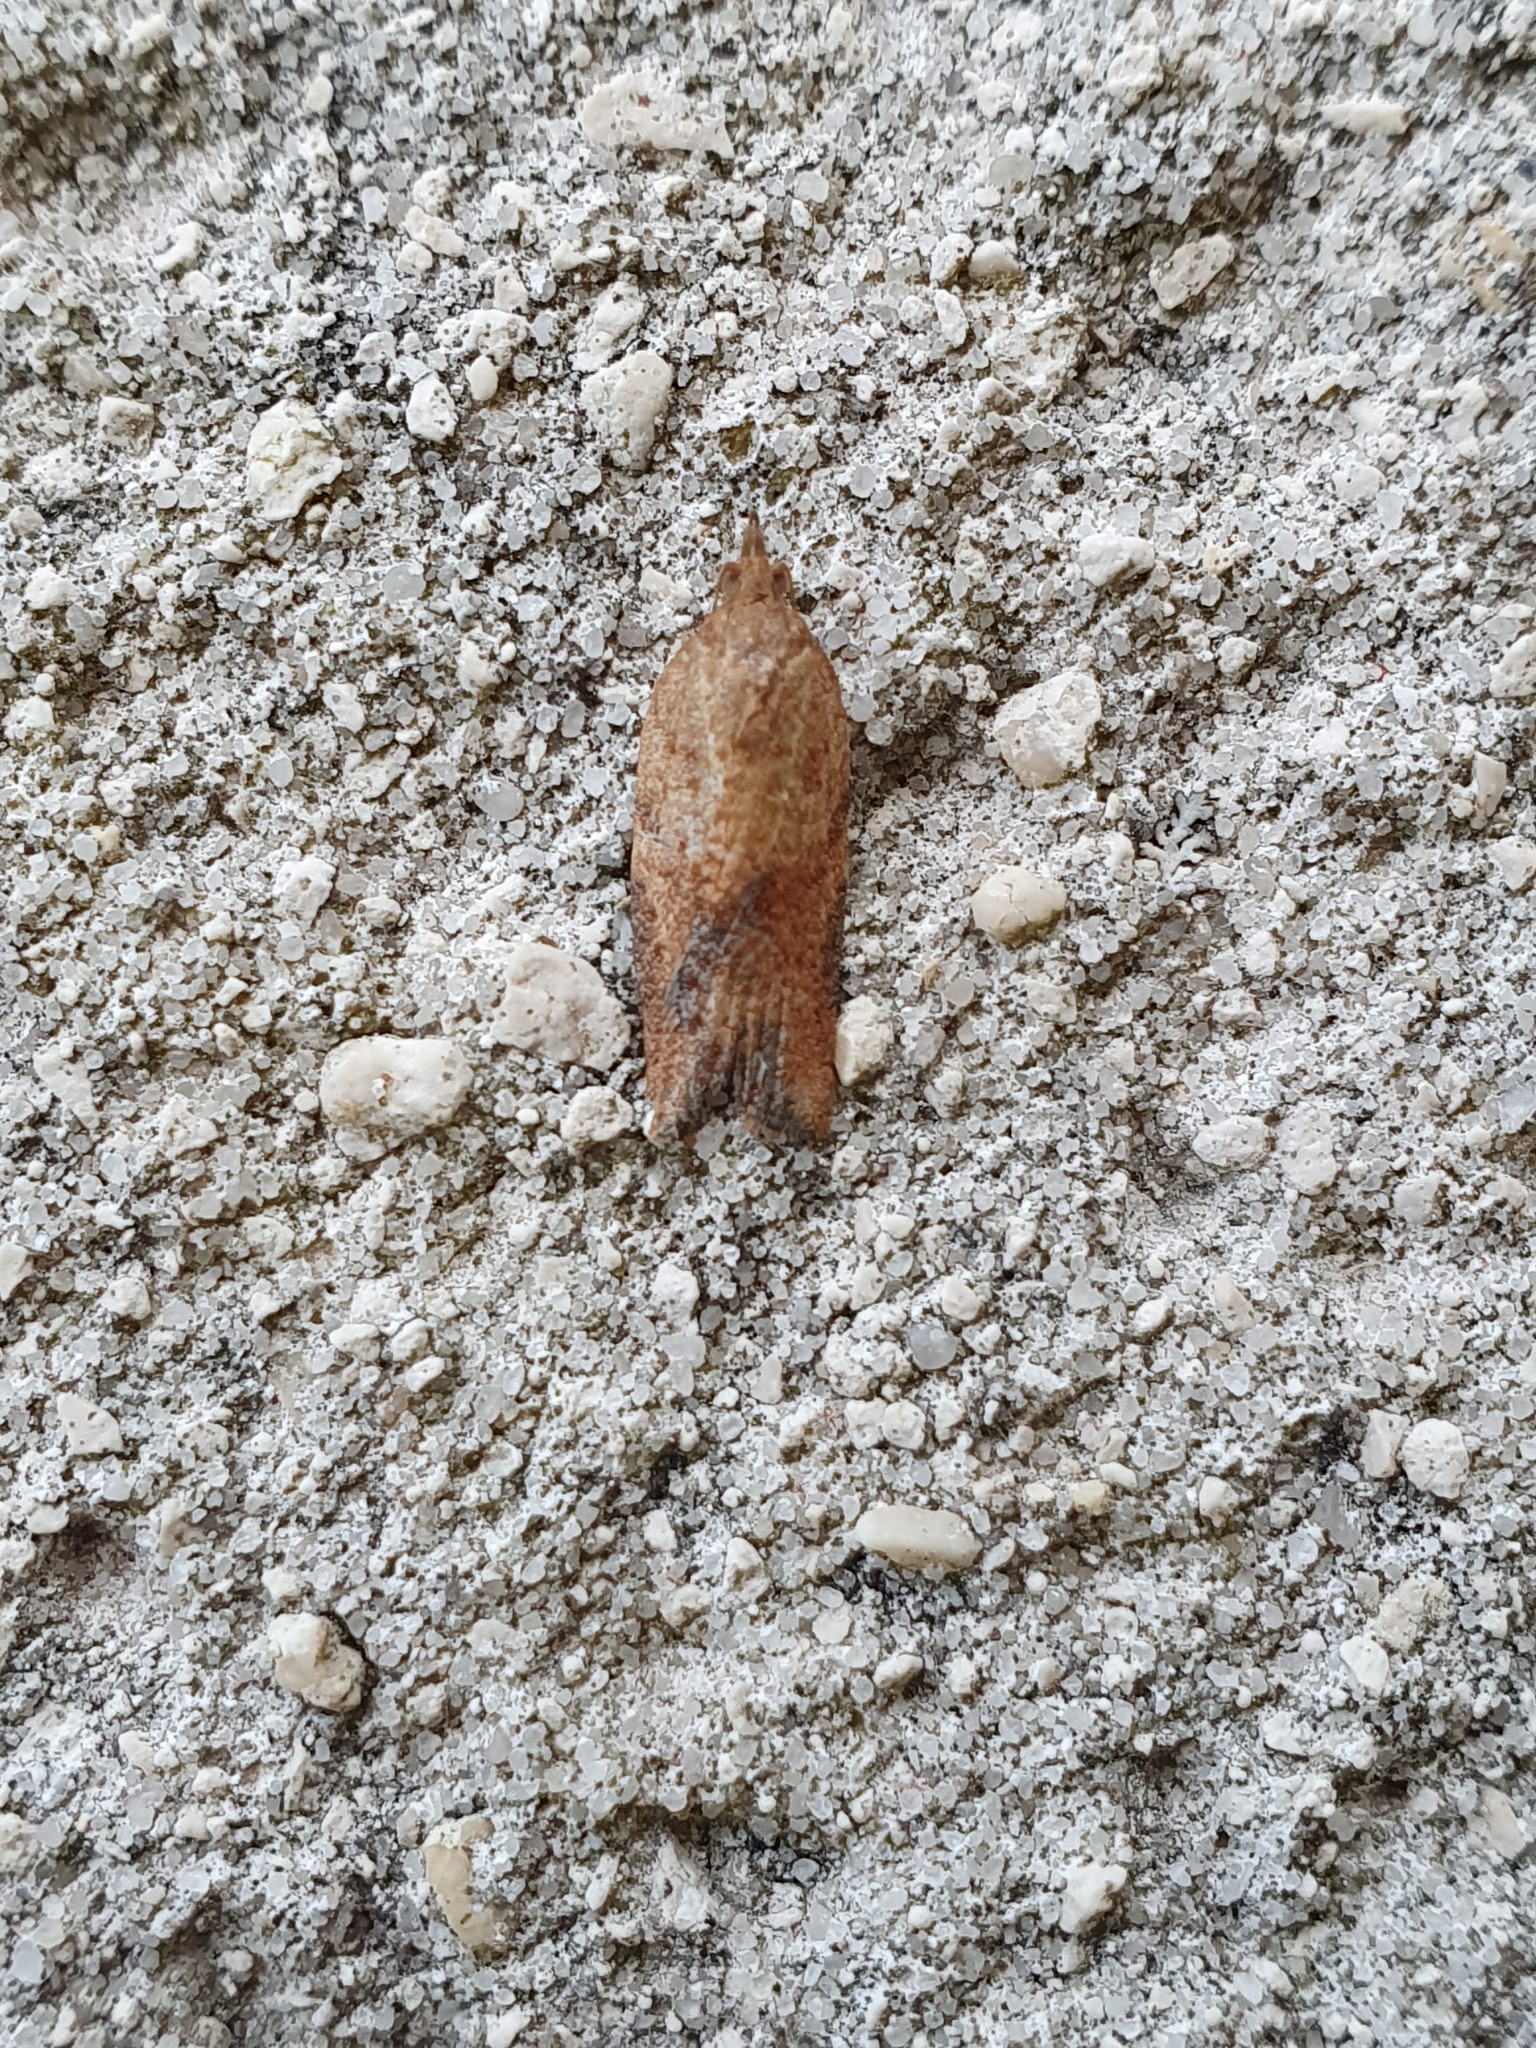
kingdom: Animalia
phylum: Arthropoda
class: Insecta
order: Lepidoptera
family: Tortricidae
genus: Epiphyas
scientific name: Epiphyas postvittana
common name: Light brown apple moth
